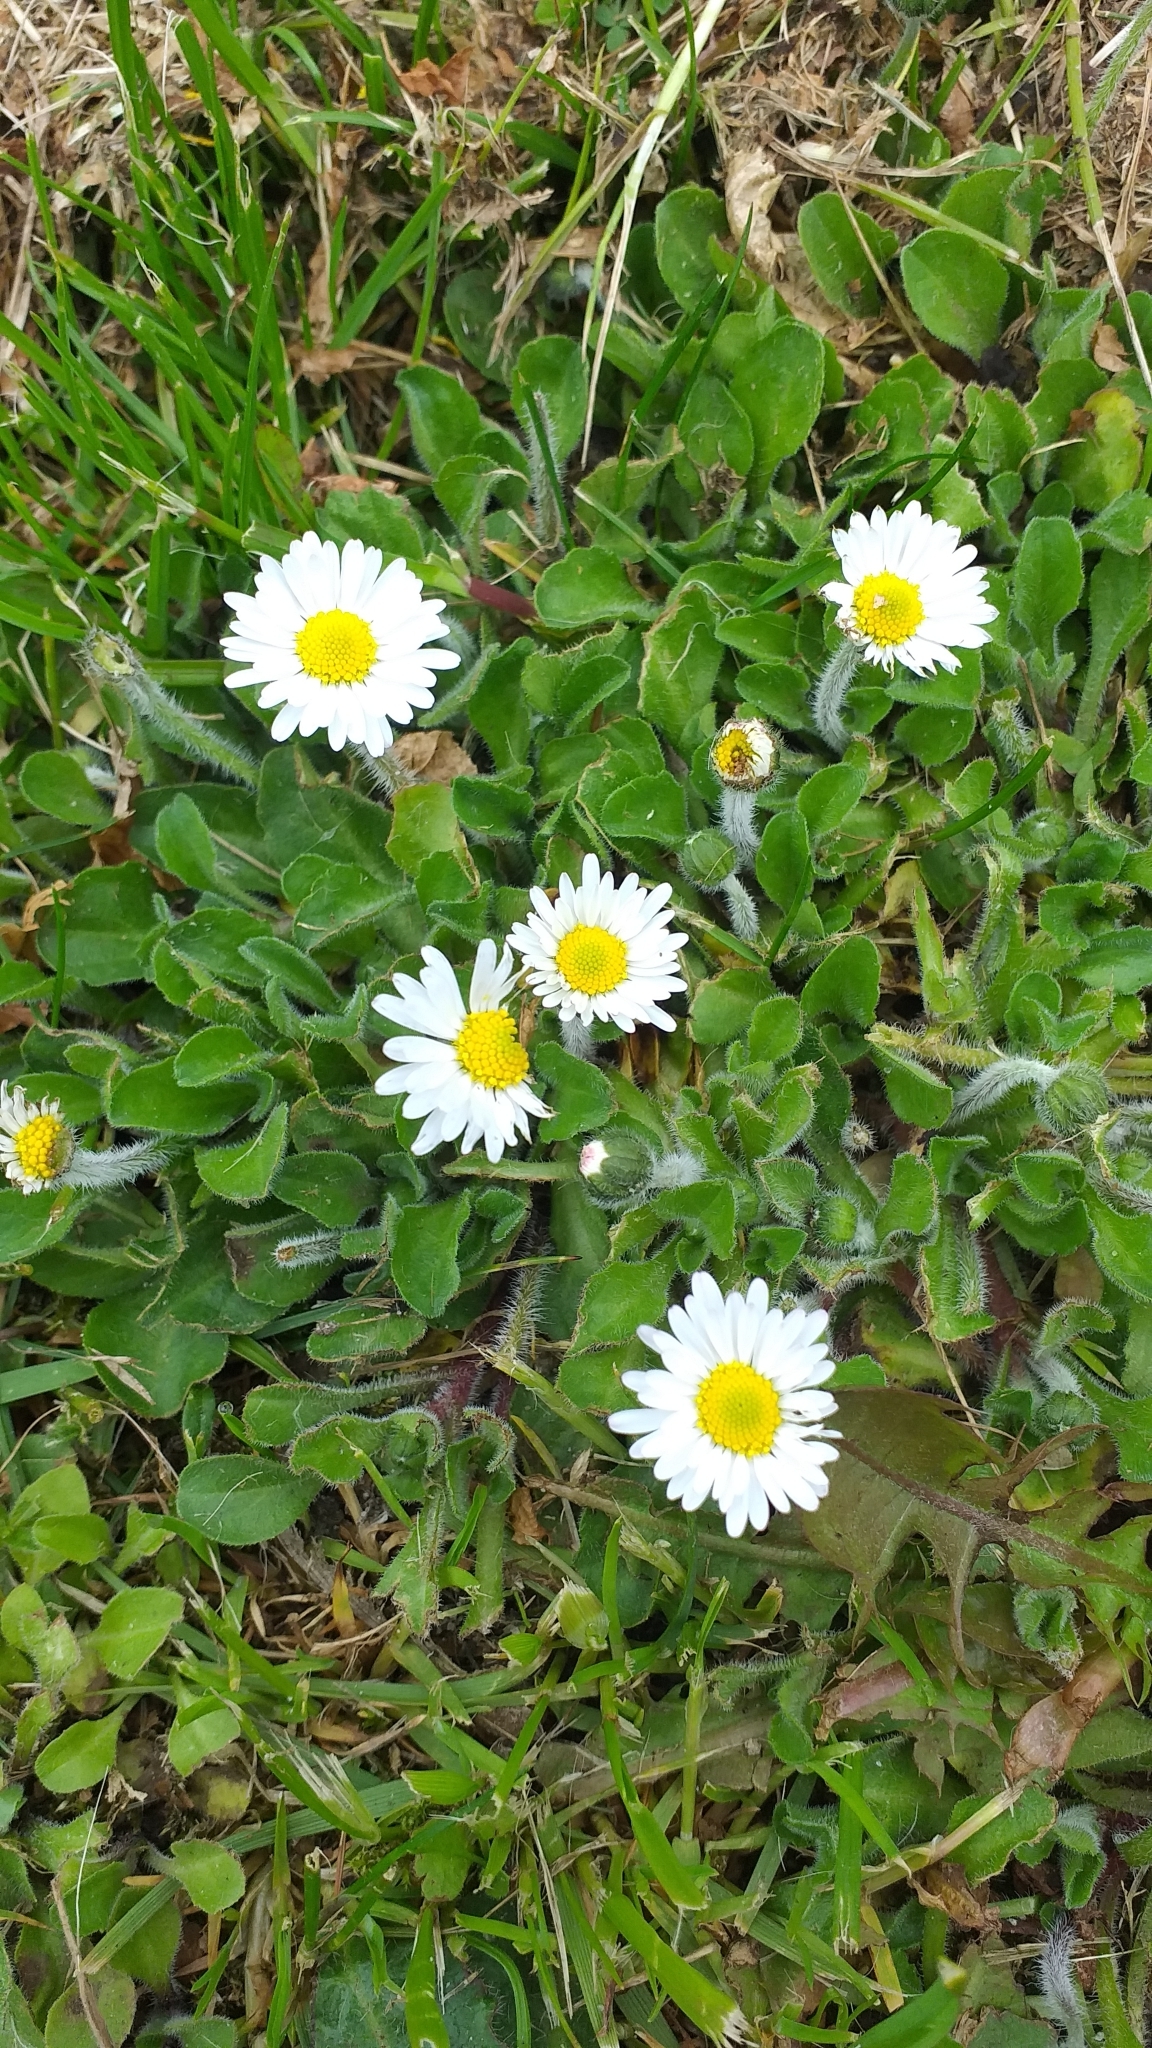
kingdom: Plantae
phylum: Tracheophyta
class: Magnoliopsida
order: Asterales
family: Asteraceae
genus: Bellis
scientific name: Bellis perennis
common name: Lawndaisy
